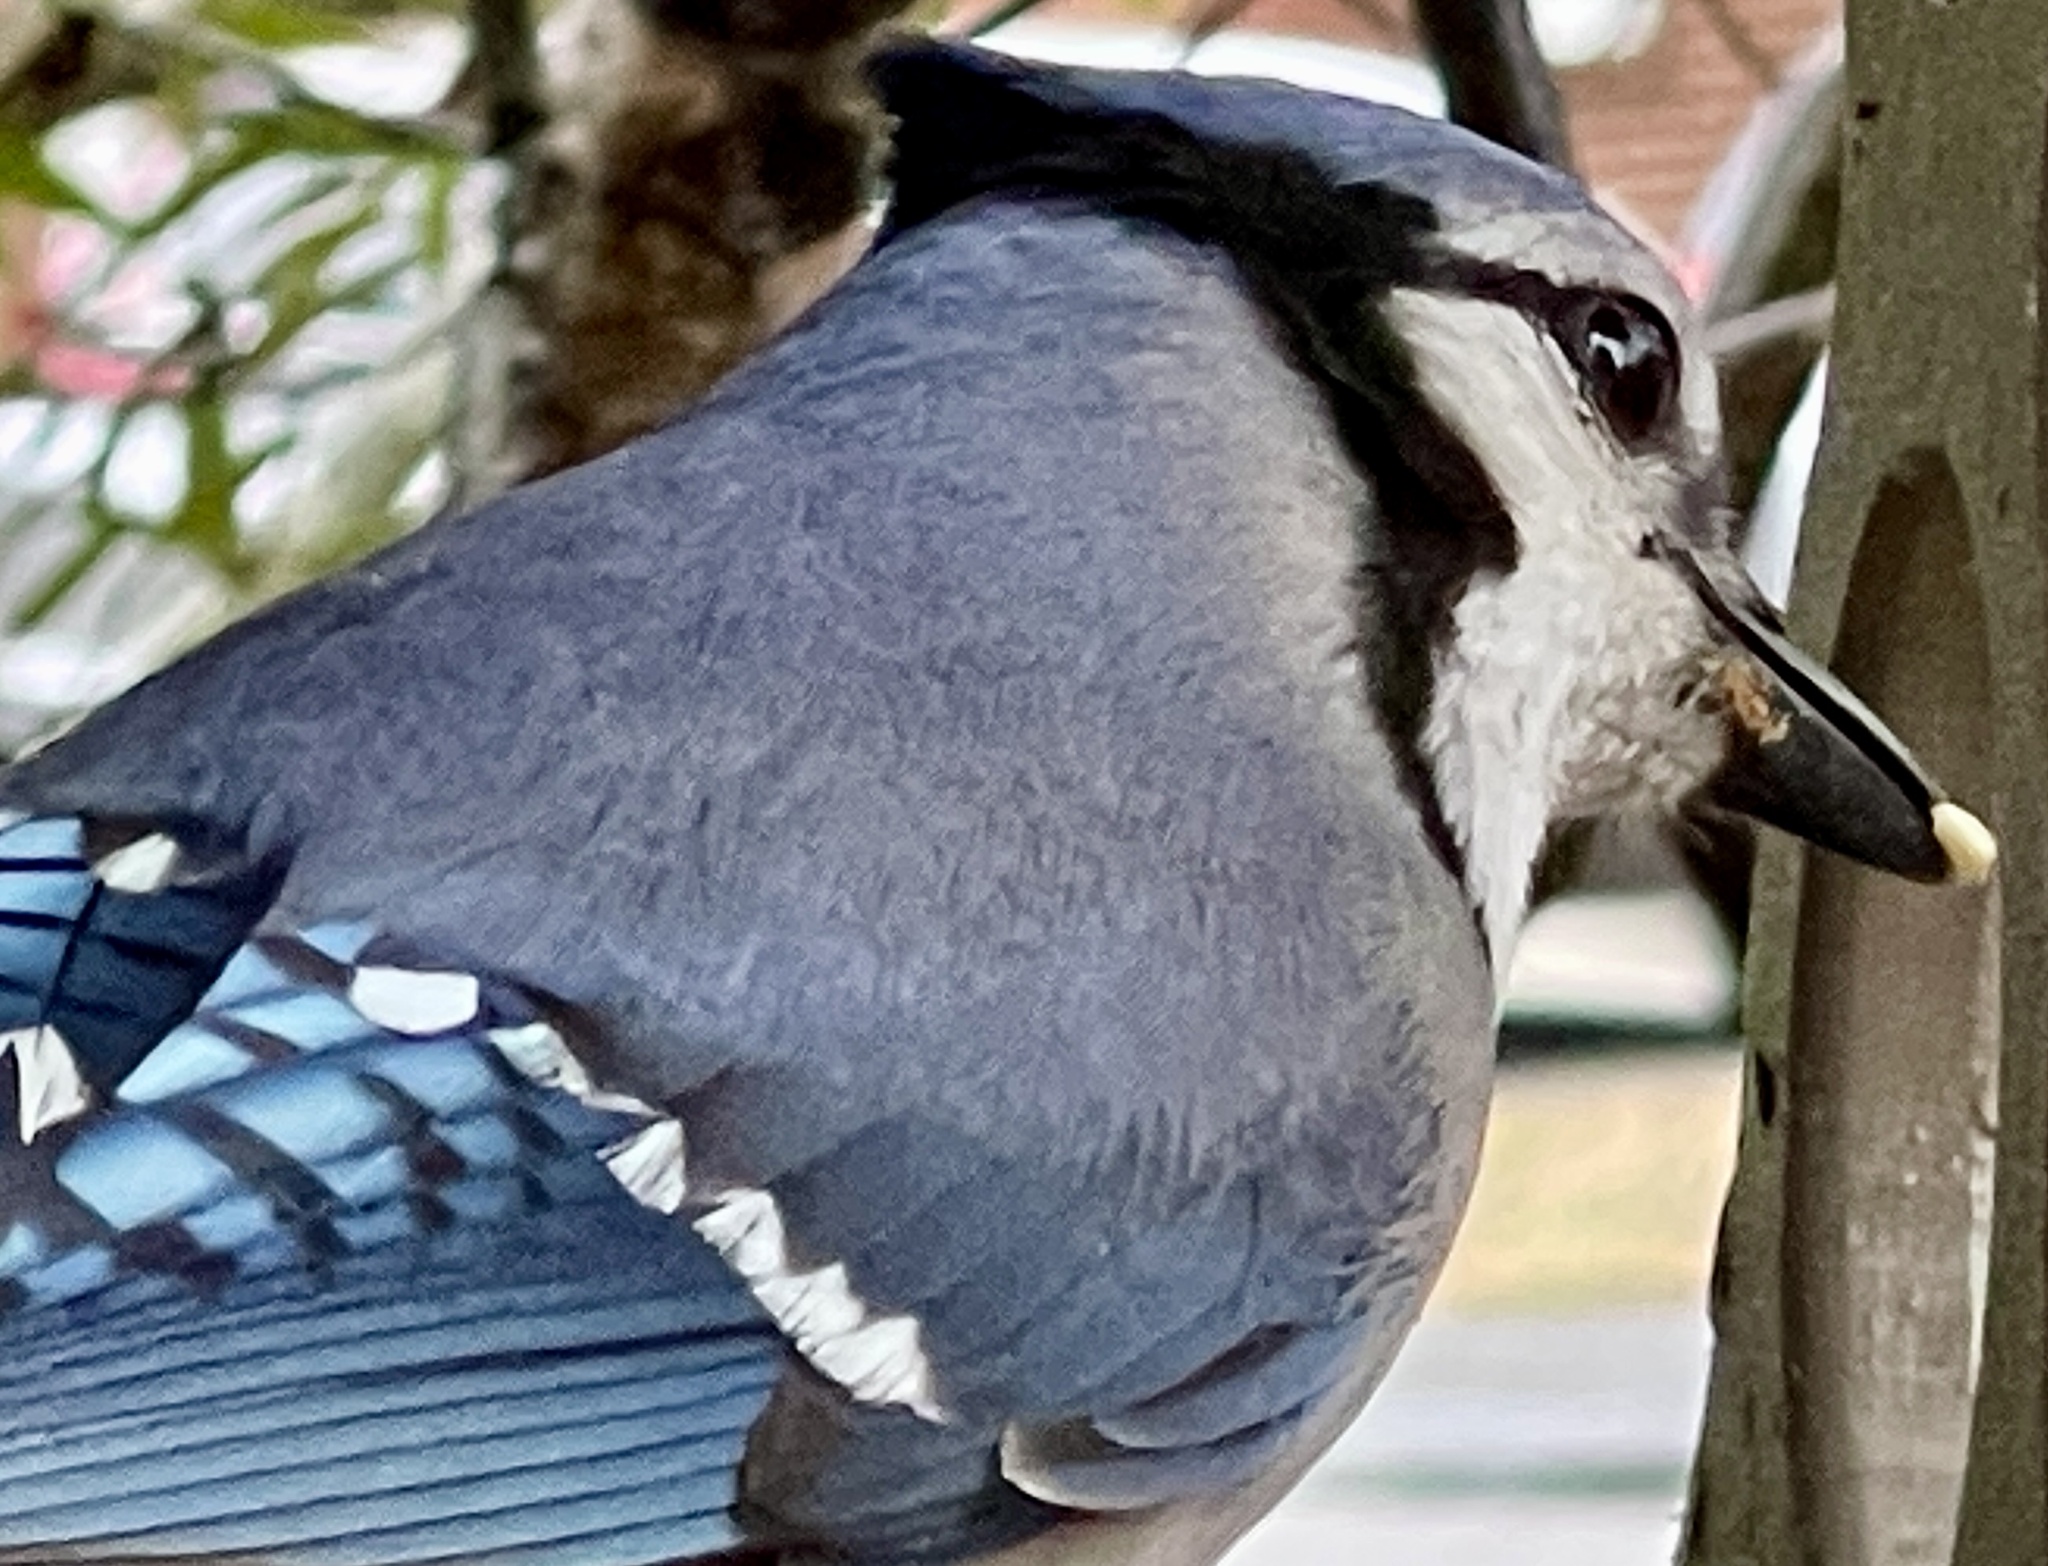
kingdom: Animalia
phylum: Chordata
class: Aves
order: Passeriformes
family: Corvidae
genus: Cyanocitta
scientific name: Cyanocitta cristata
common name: Blue jay
